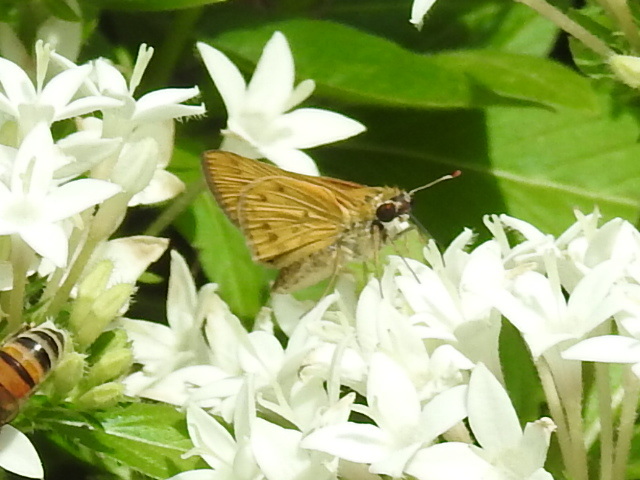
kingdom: Animalia
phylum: Arthropoda
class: Insecta
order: Lepidoptera
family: Hesperiidae
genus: Hylephila
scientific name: Hylephila phyleus
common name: Fiery skipper
